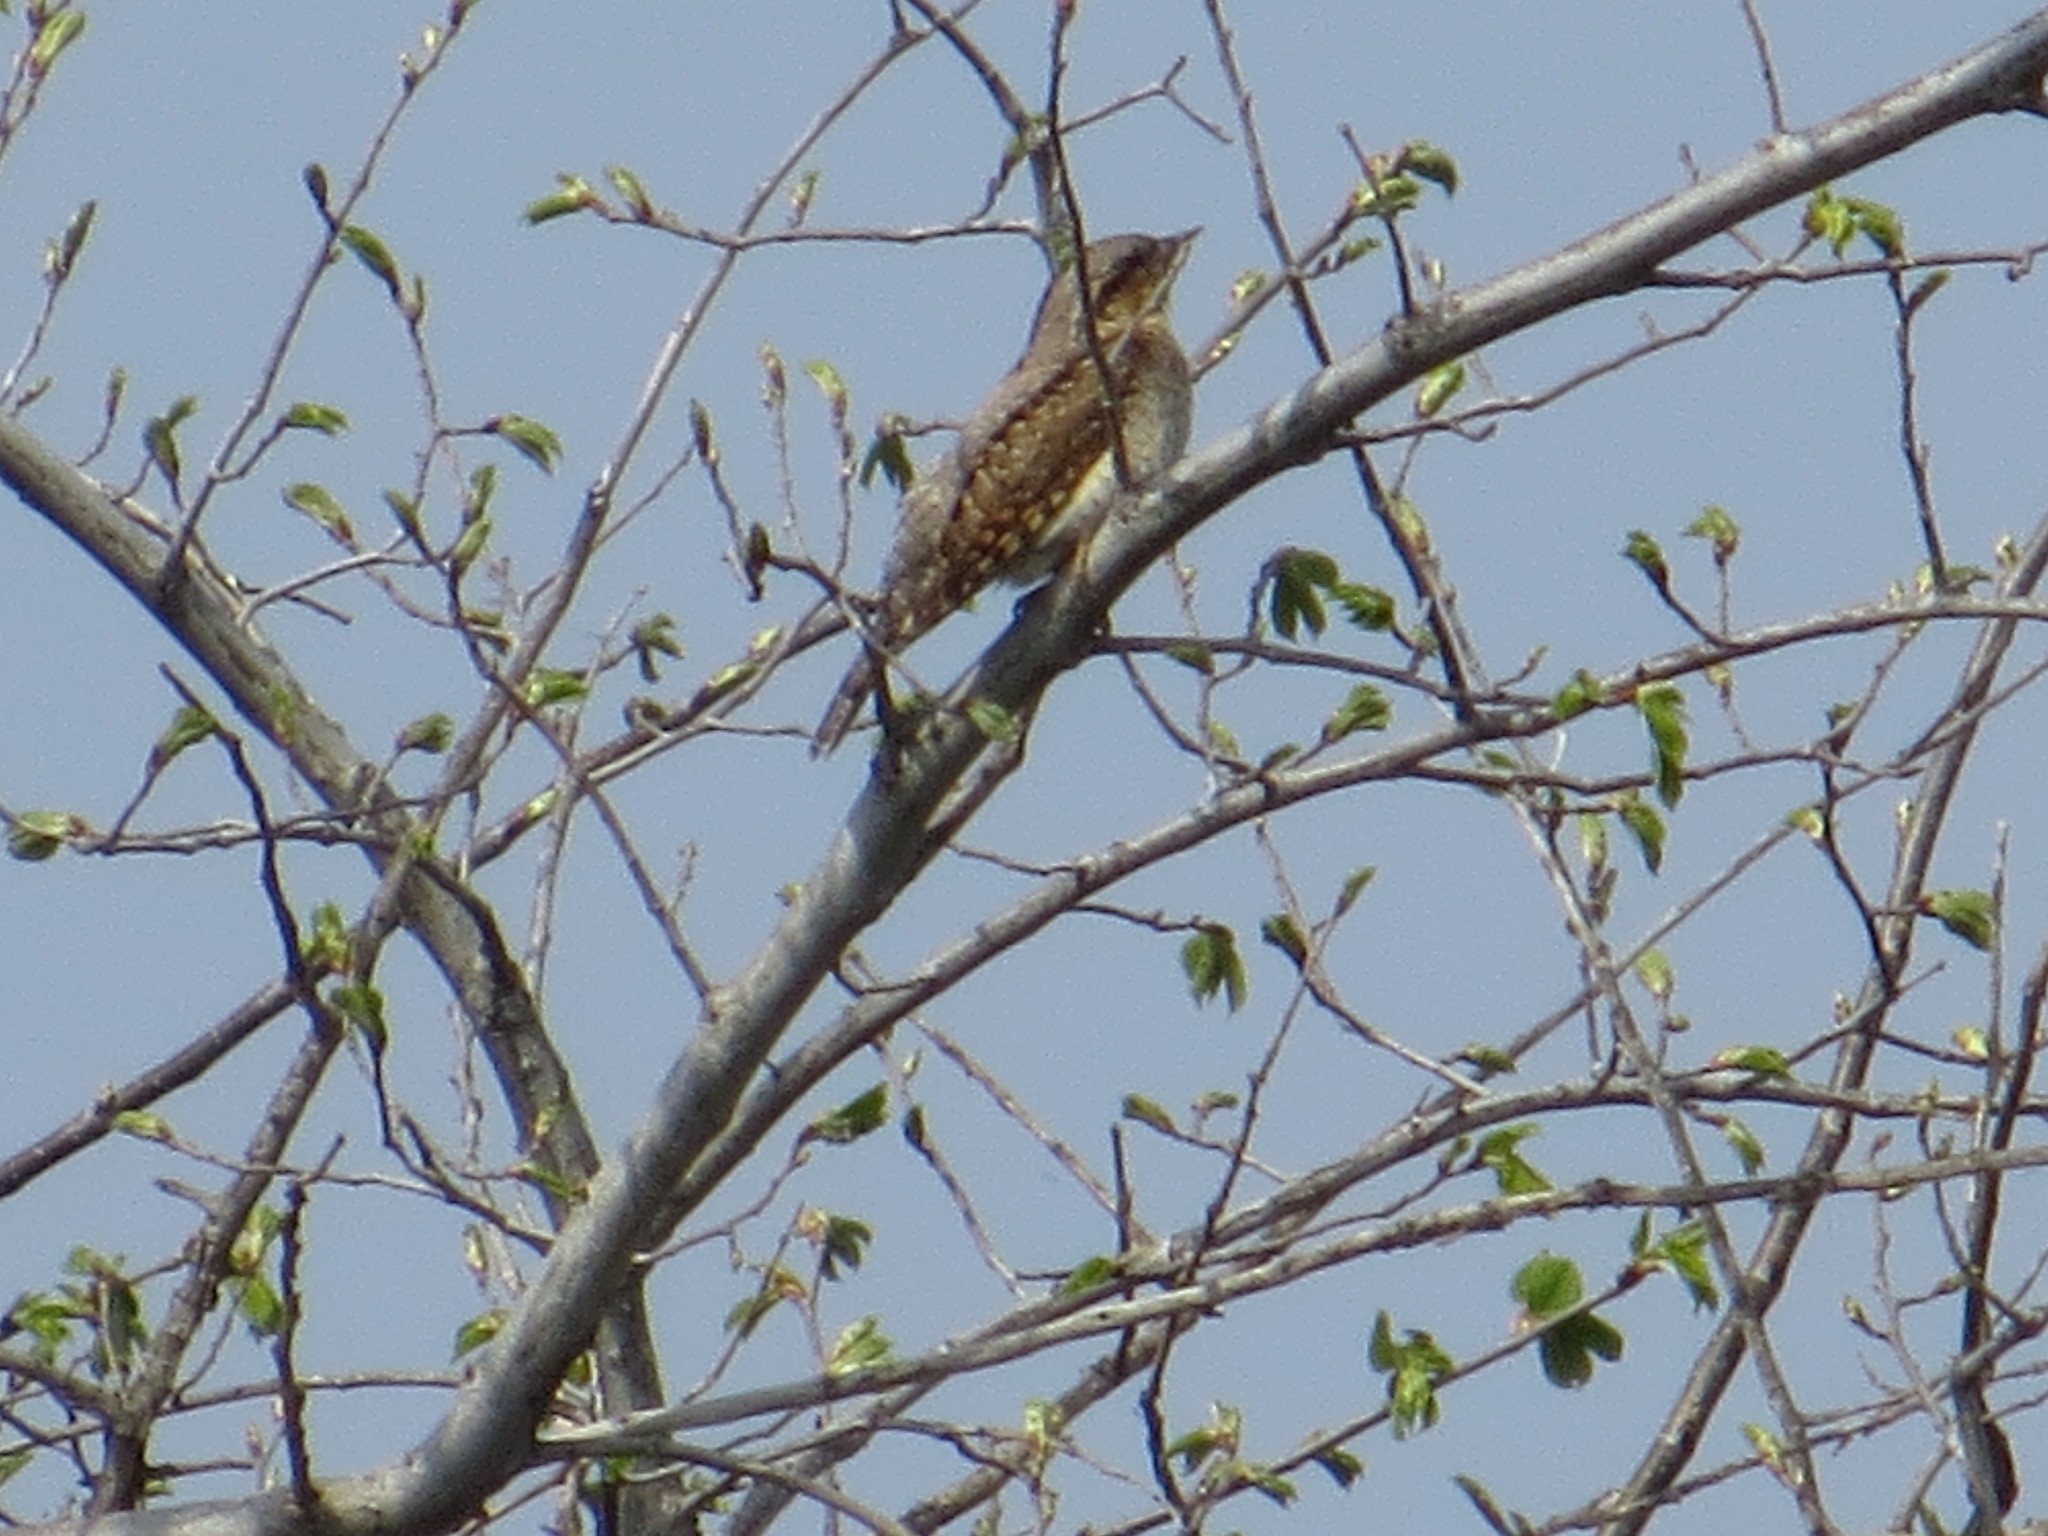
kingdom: Animalia
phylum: Chordata
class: Aves
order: Piciformes
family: Picidae
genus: Jynx
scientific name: Jynx torquilla
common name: Eurasian wryneck
